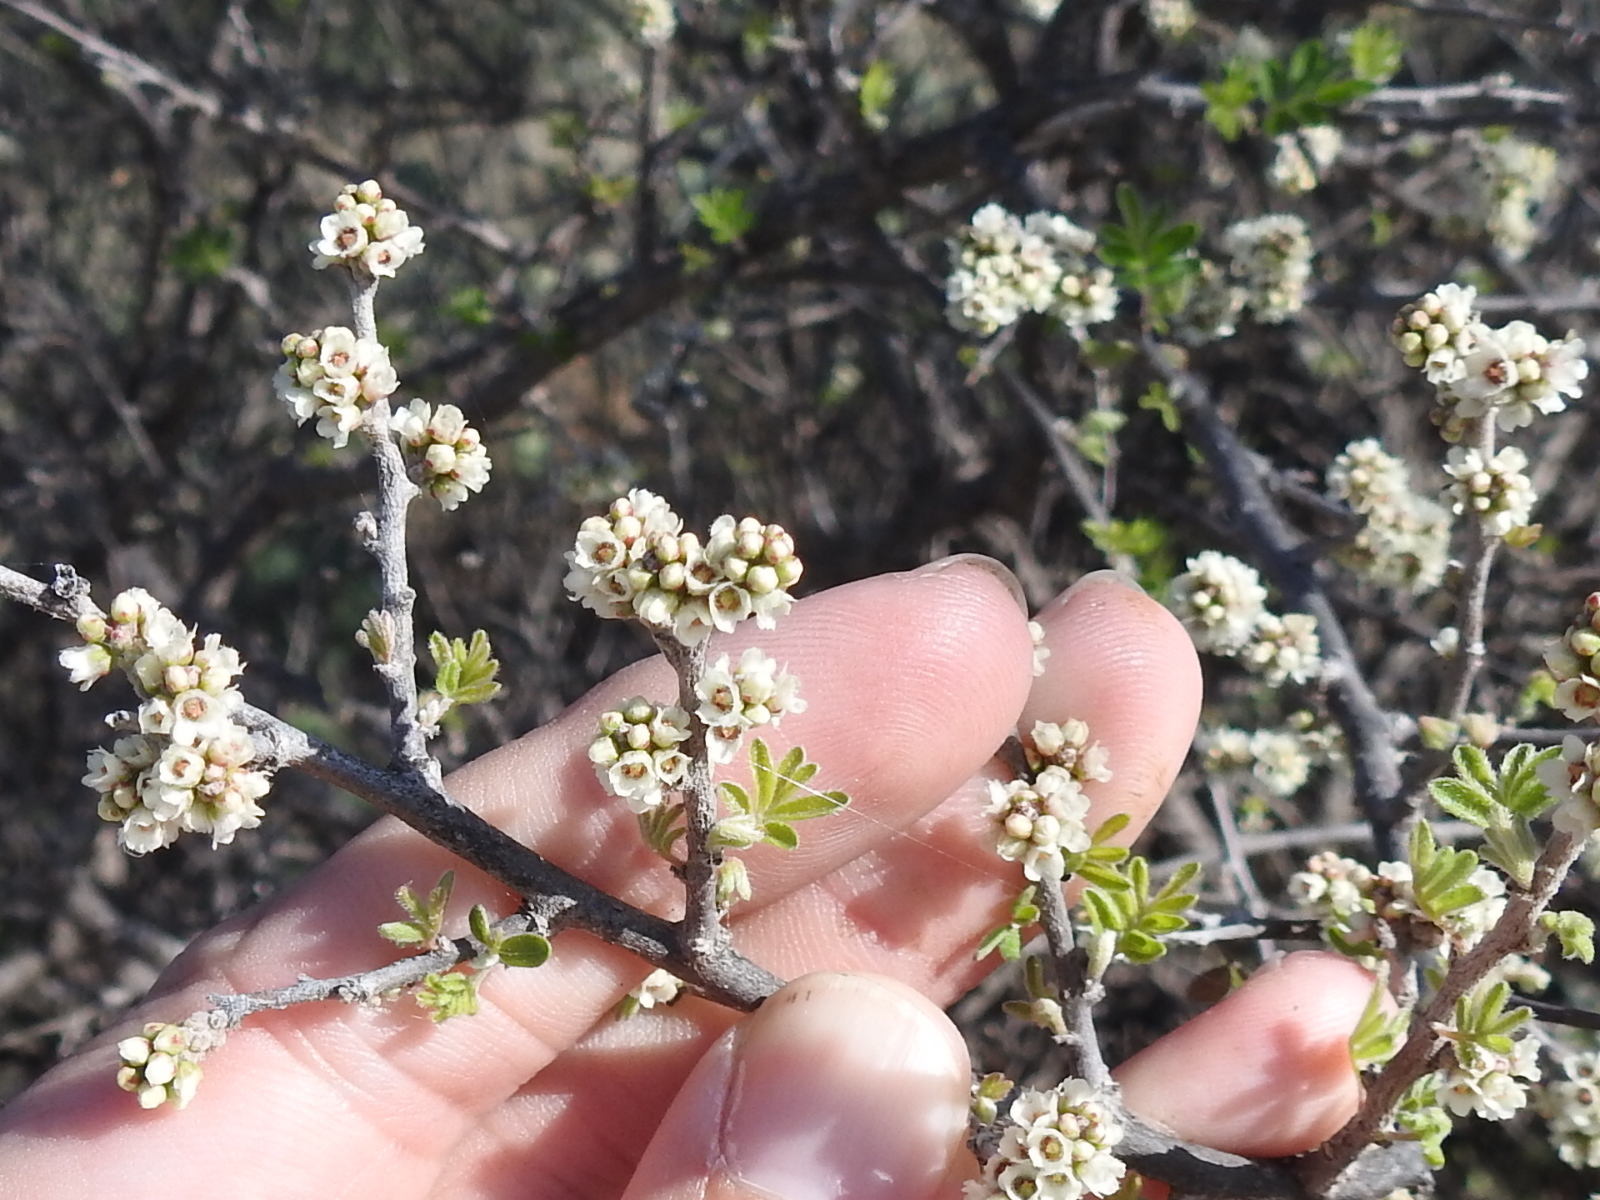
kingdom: Plantae
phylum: Tracheophyta
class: Magnoliopsida
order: Sapindales
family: Anacardiaceae
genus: Rhus
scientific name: Rhus microphylla
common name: Desert sumac
